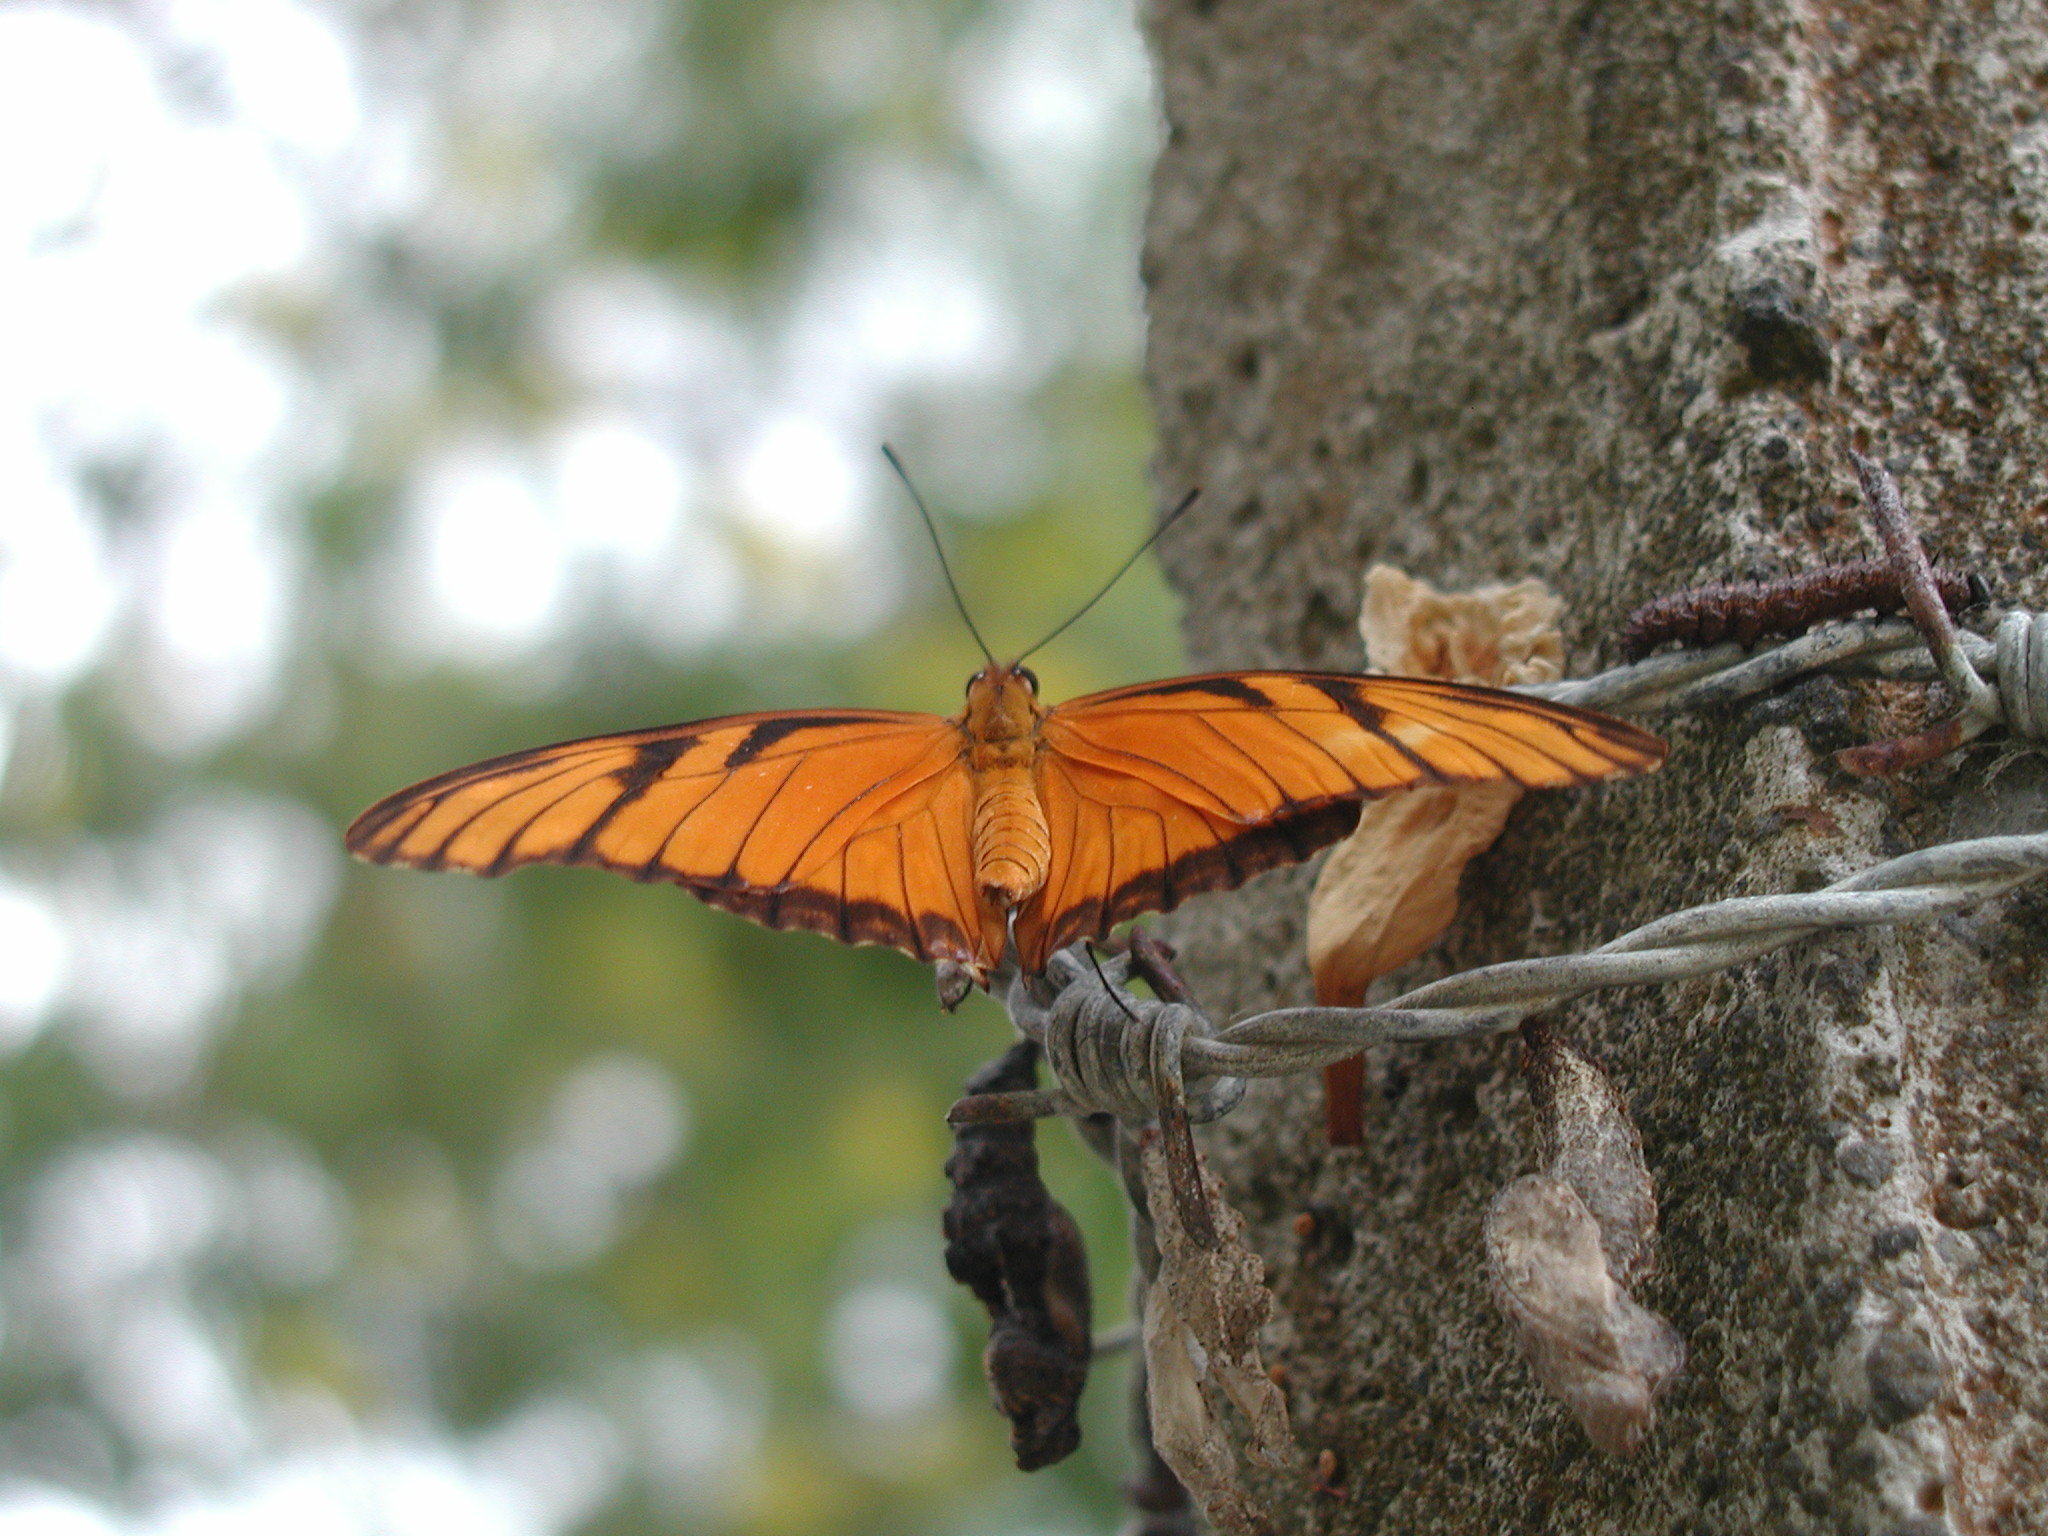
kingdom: Animalia
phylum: Arthropoda
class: Insecta
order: Lepidoptera
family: Nymphalidae
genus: Dione
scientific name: Dione juno
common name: Juno silverspot
